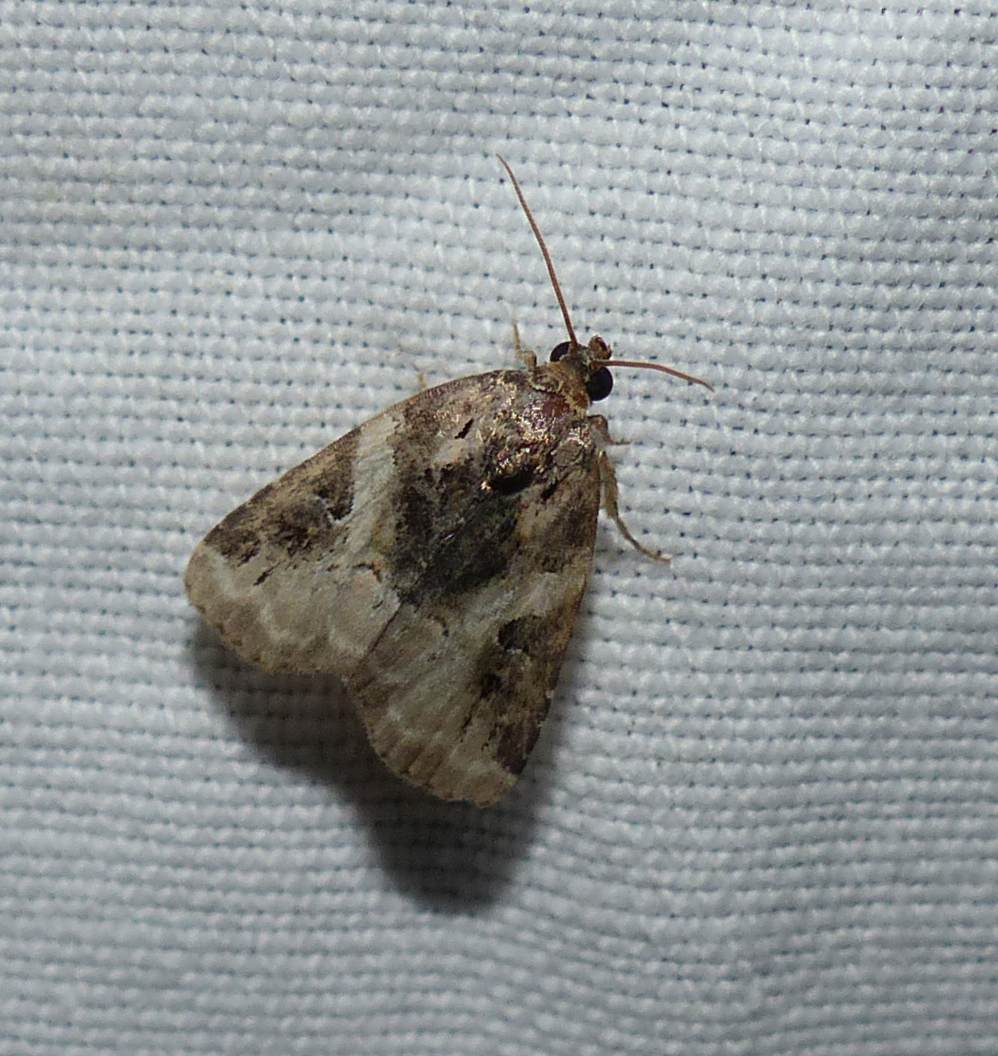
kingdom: Animalia
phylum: Arthropoda
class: Insecta
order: Lepidoptera
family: Noctuidae
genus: Pseudeustrotia
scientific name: Pseudeustrotia carneola
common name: Pink-barred lithacodia moth
